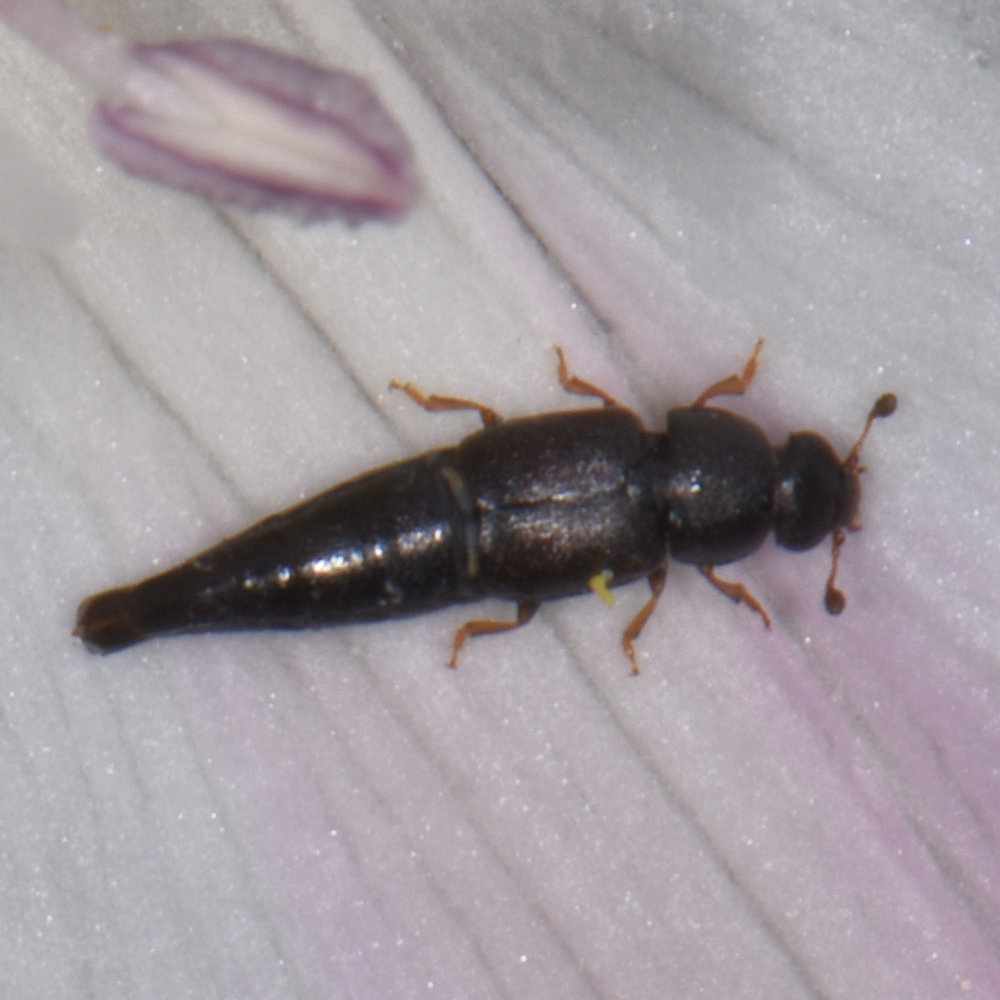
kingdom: Animalia
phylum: Arthropoda
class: Insecta
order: Coleoptera
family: Nitidulidae
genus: Conotelus
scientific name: Conotelus obscurus
